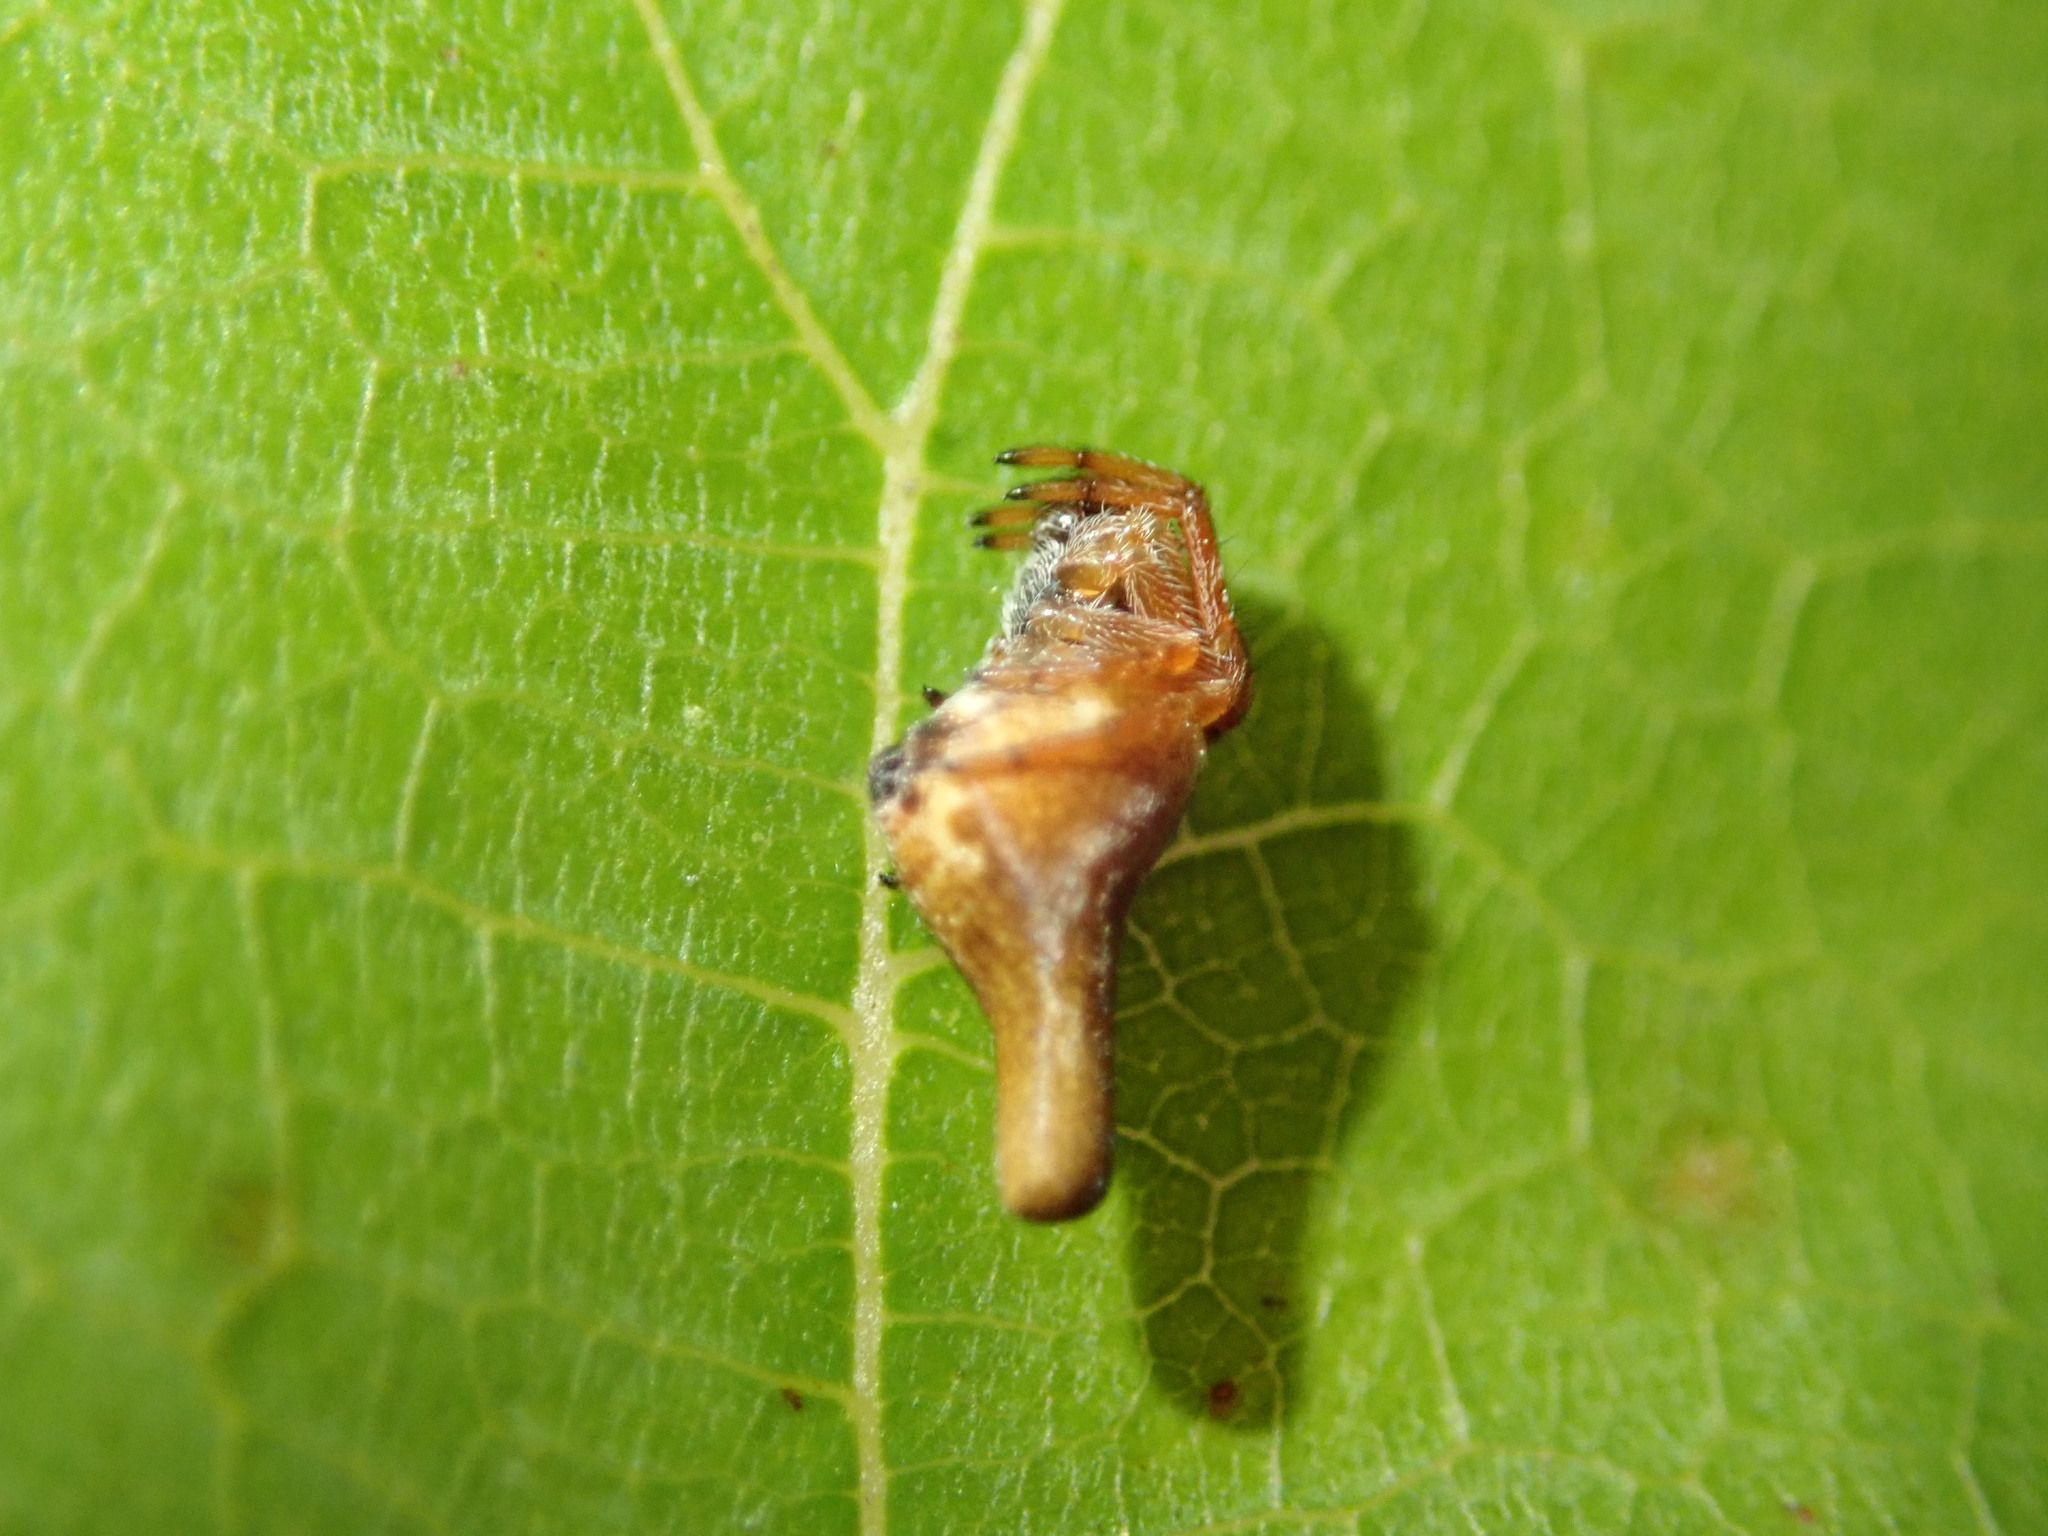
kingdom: Animalia
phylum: Arthropoda
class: Arachnida
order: Araneae
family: Araneidae
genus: Cyclosa
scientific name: Cyclosa conica
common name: Conical trashline orbweaver
